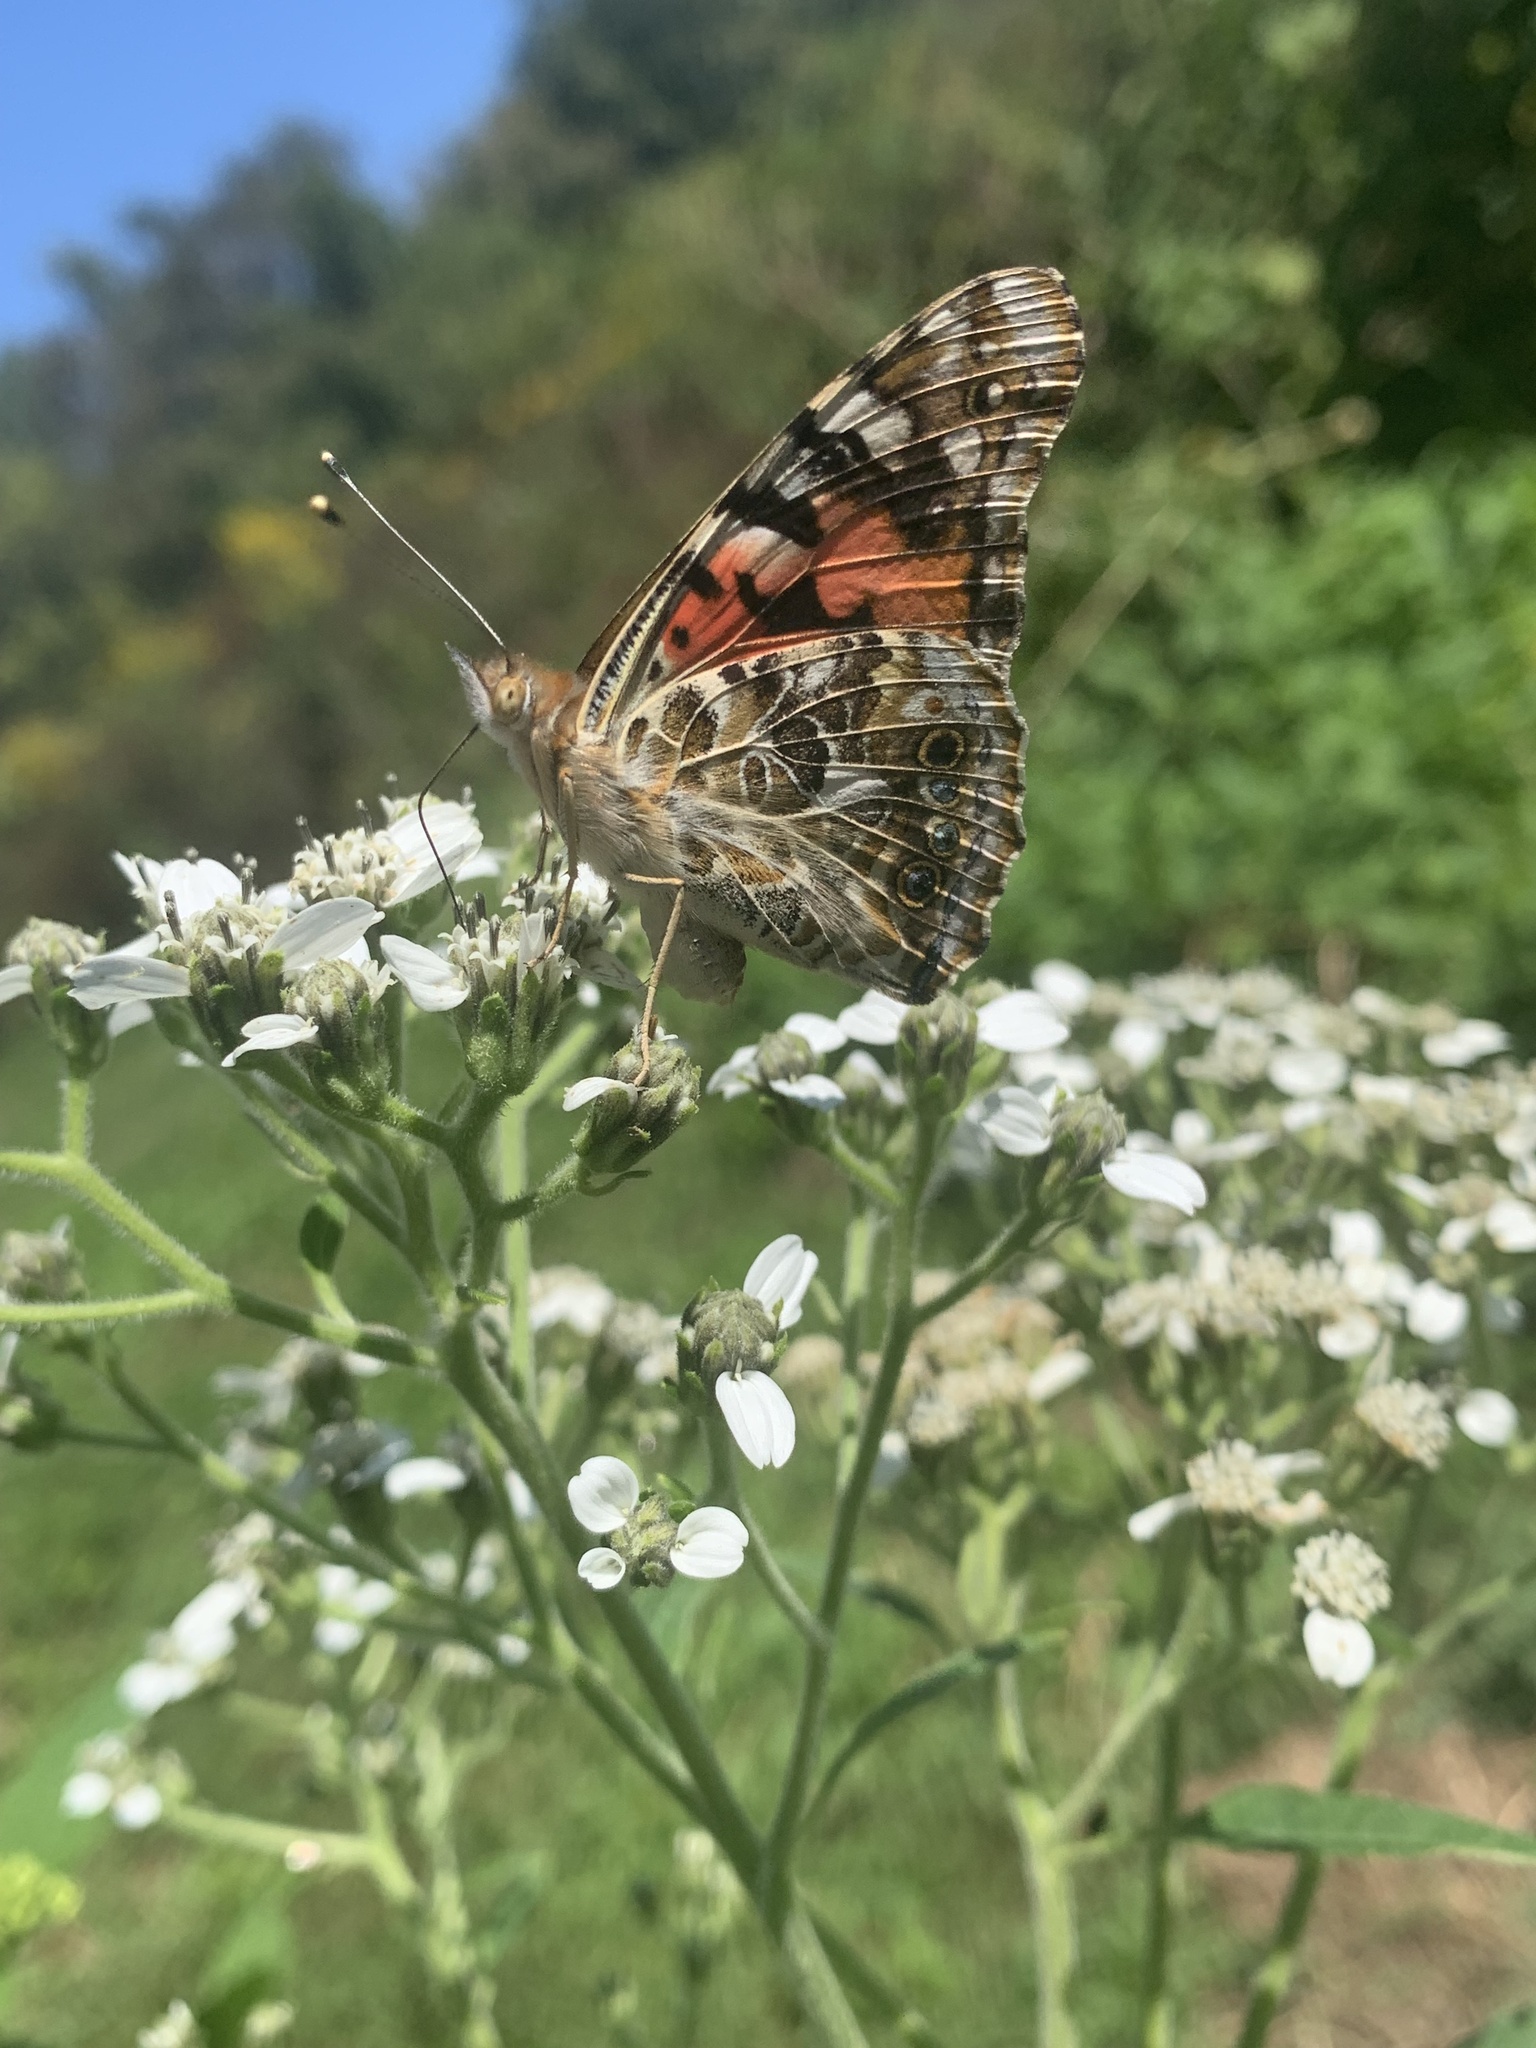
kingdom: Animalia
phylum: Arthropoda
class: Insecta
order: Lepidoptera
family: Nymphalidae
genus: Vanessa
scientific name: Vanessa cardui
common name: Painted lady
